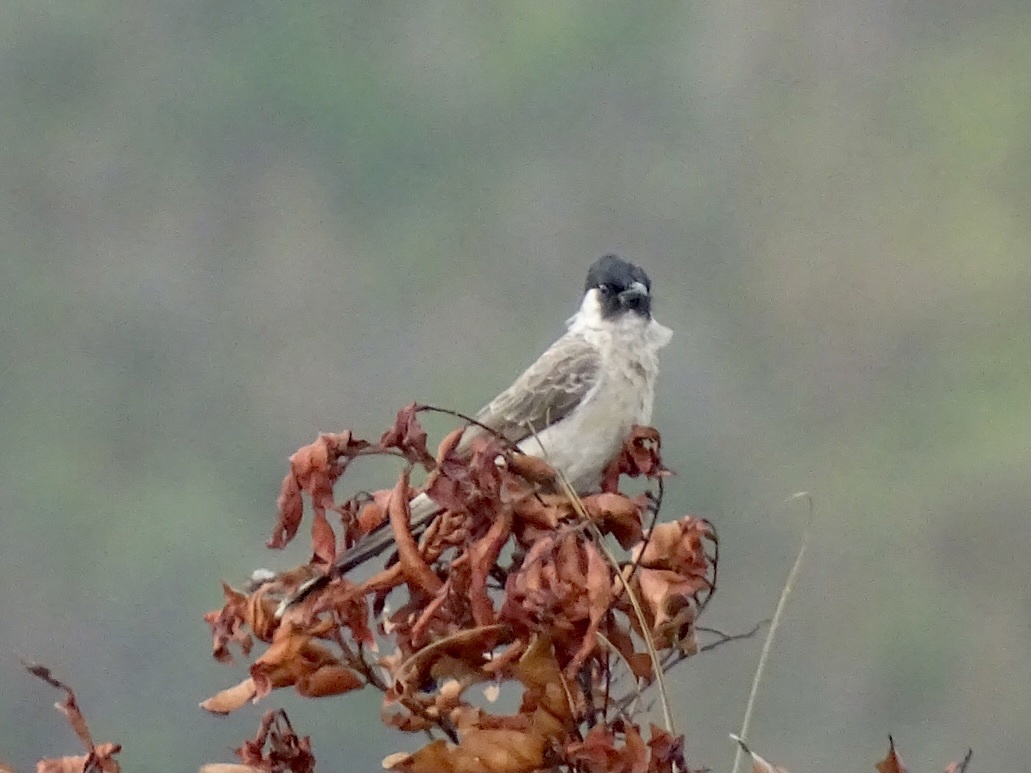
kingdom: Animalia
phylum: Chordata
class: Aves
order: Passeriformes
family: Pycnonotidae
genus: Pycnonotus
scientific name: Pycnonotus aurigaster
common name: Sooty-headed bulbul
